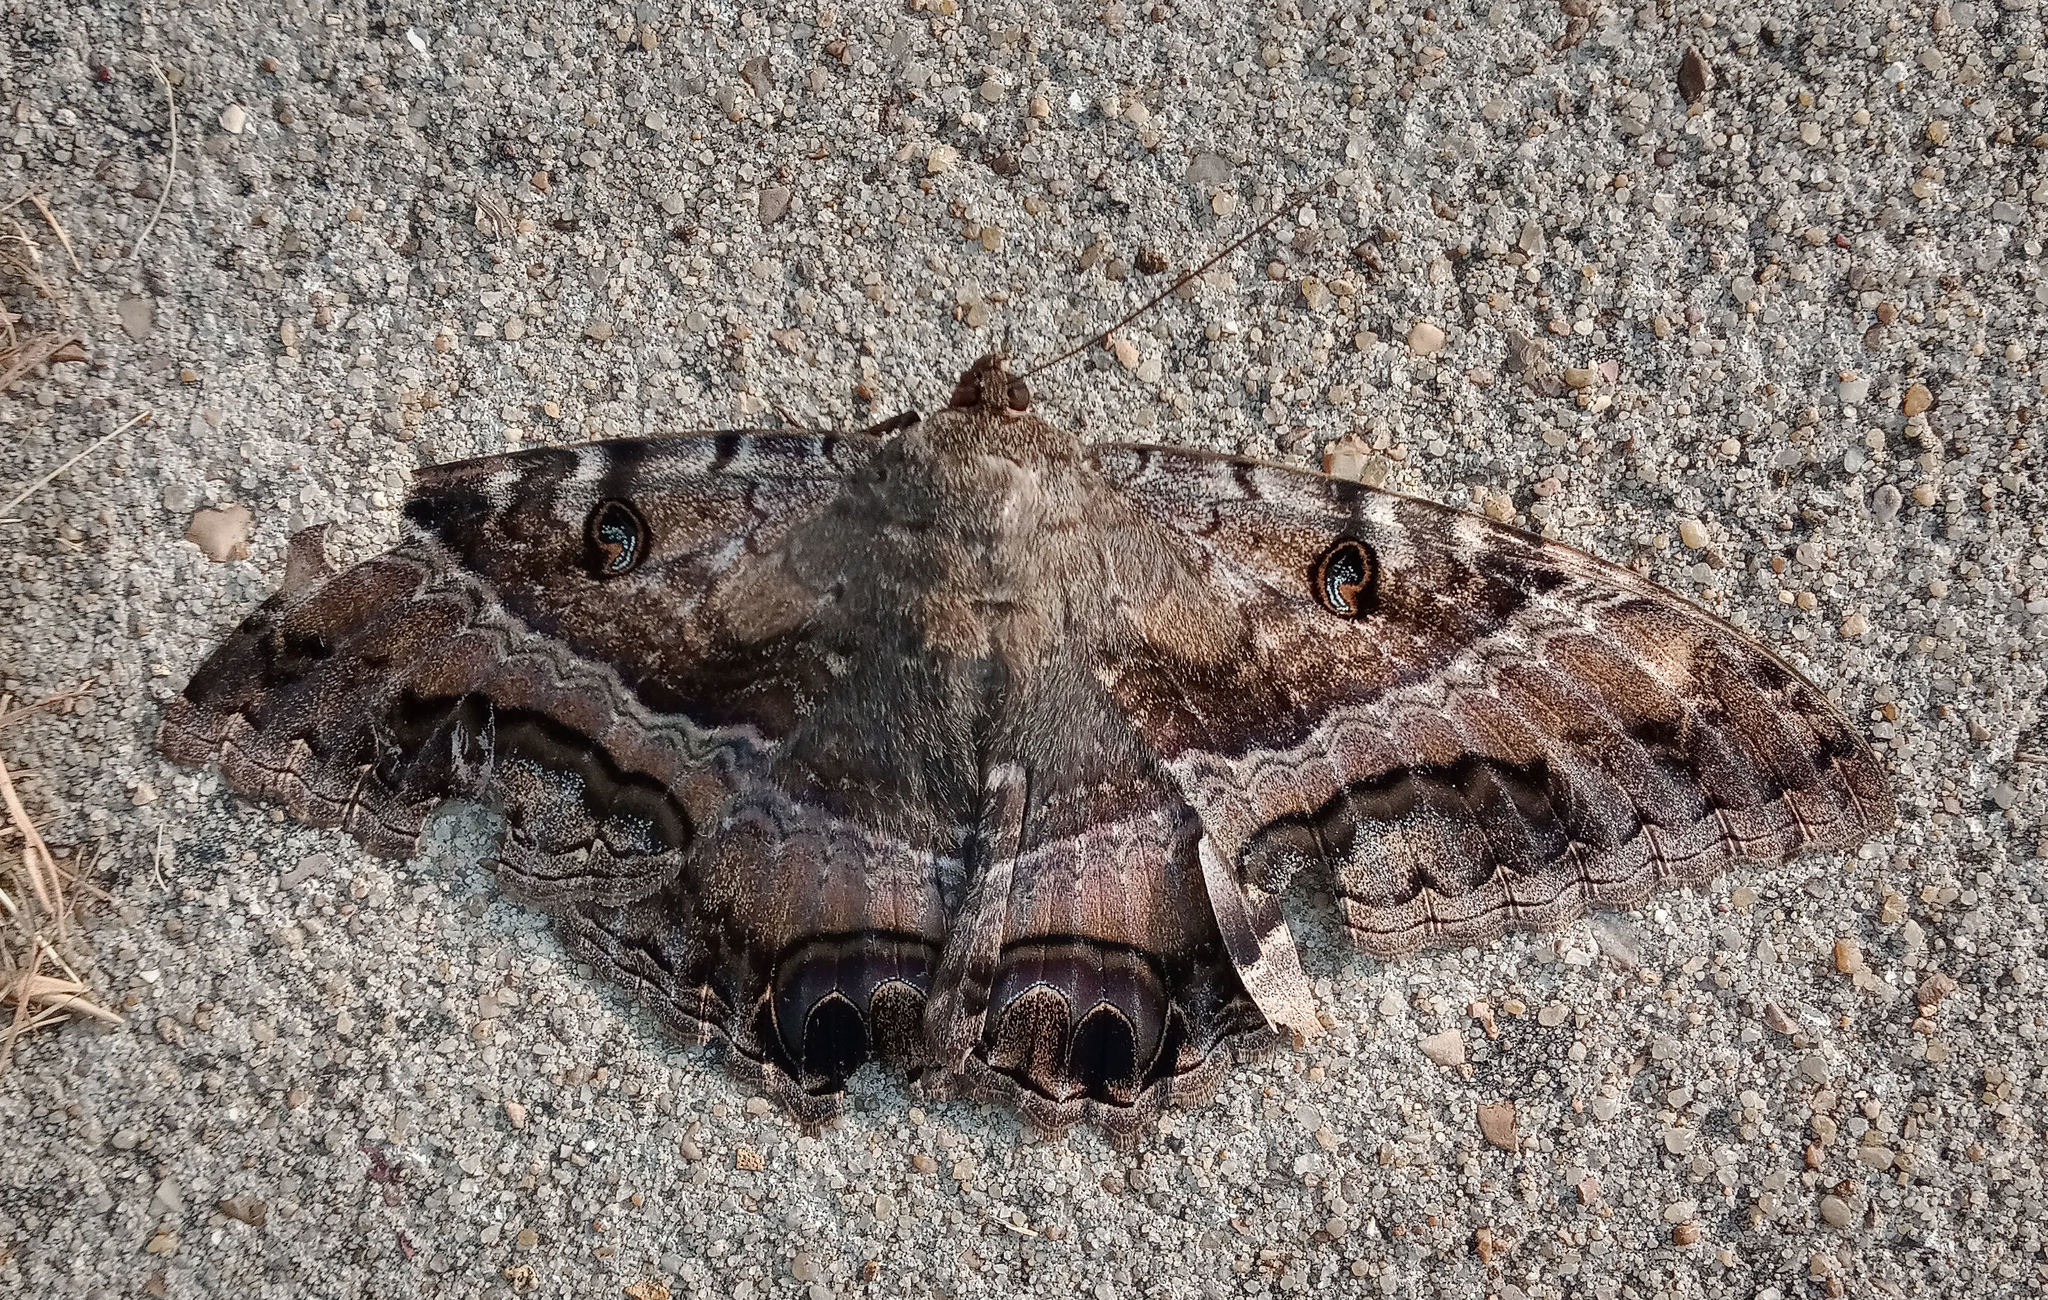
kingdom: Animalia
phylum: Arthropoda
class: Insecta
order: Lepidoptera
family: Erebidae
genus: Ascalapha
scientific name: Ascalapha odorata
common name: Black witch
